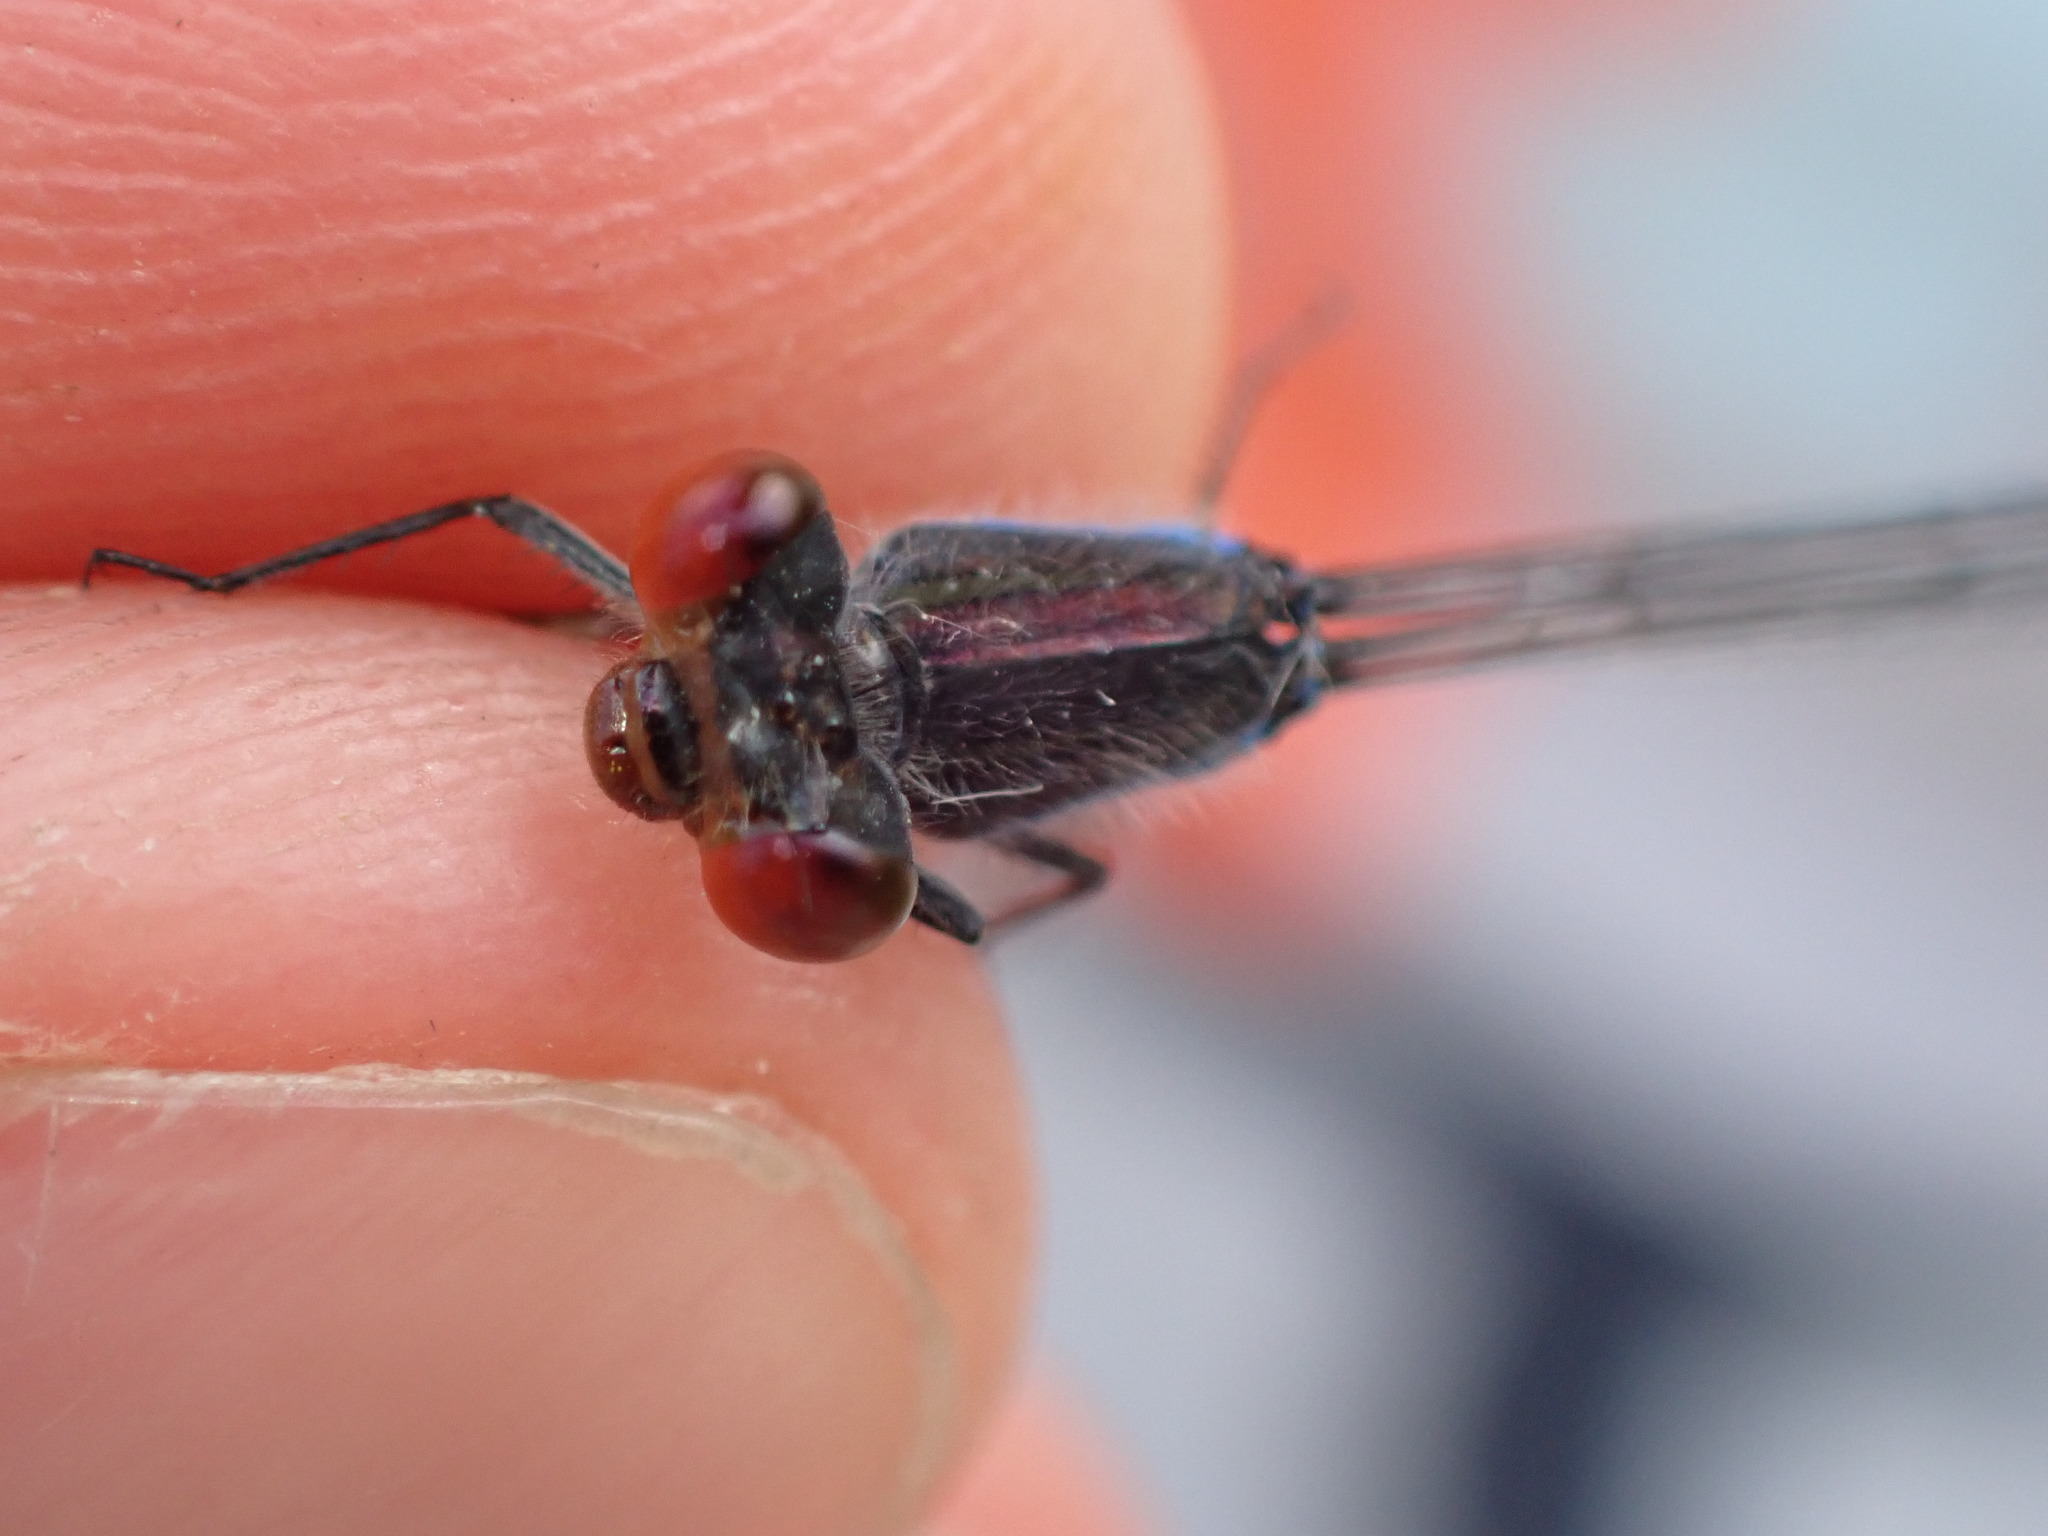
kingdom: Animalia
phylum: Arthropoda
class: Insecta
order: Odonata
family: Coenagrionidae
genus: Erythromma
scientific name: Erythromma viridulum
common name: Small red-eyed damselfly
